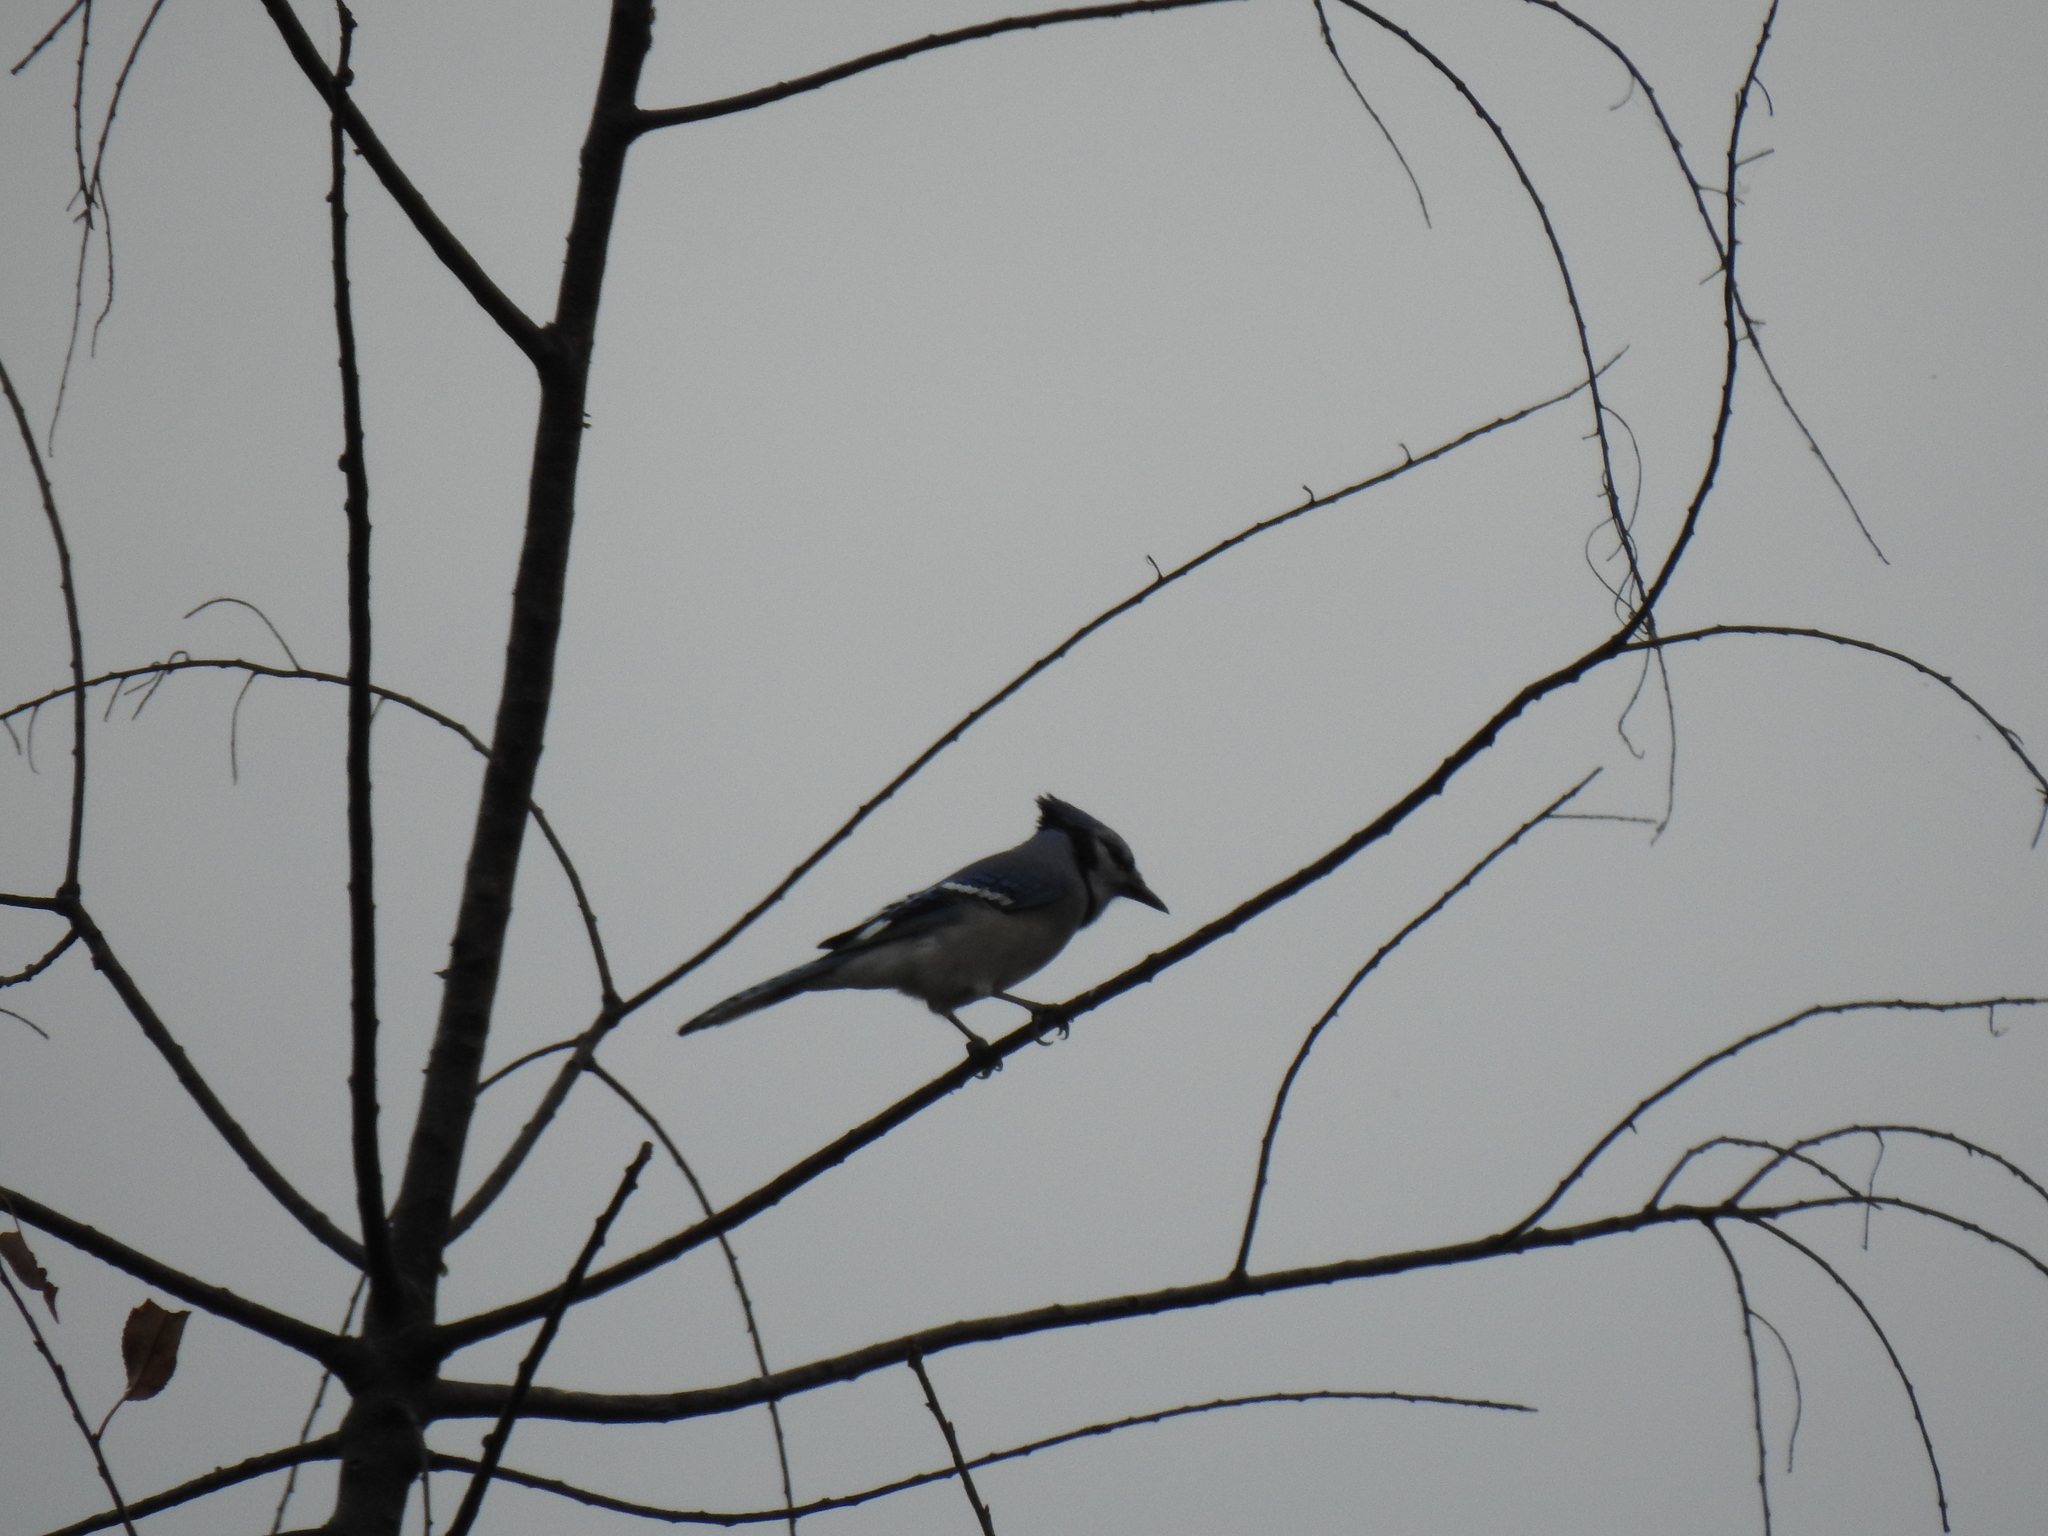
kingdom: Animalia
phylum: Chordata
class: Aves
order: Passeriformes
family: Corvidae
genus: Cyanocitta
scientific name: Cyanocitta cristata
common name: Blue jay
